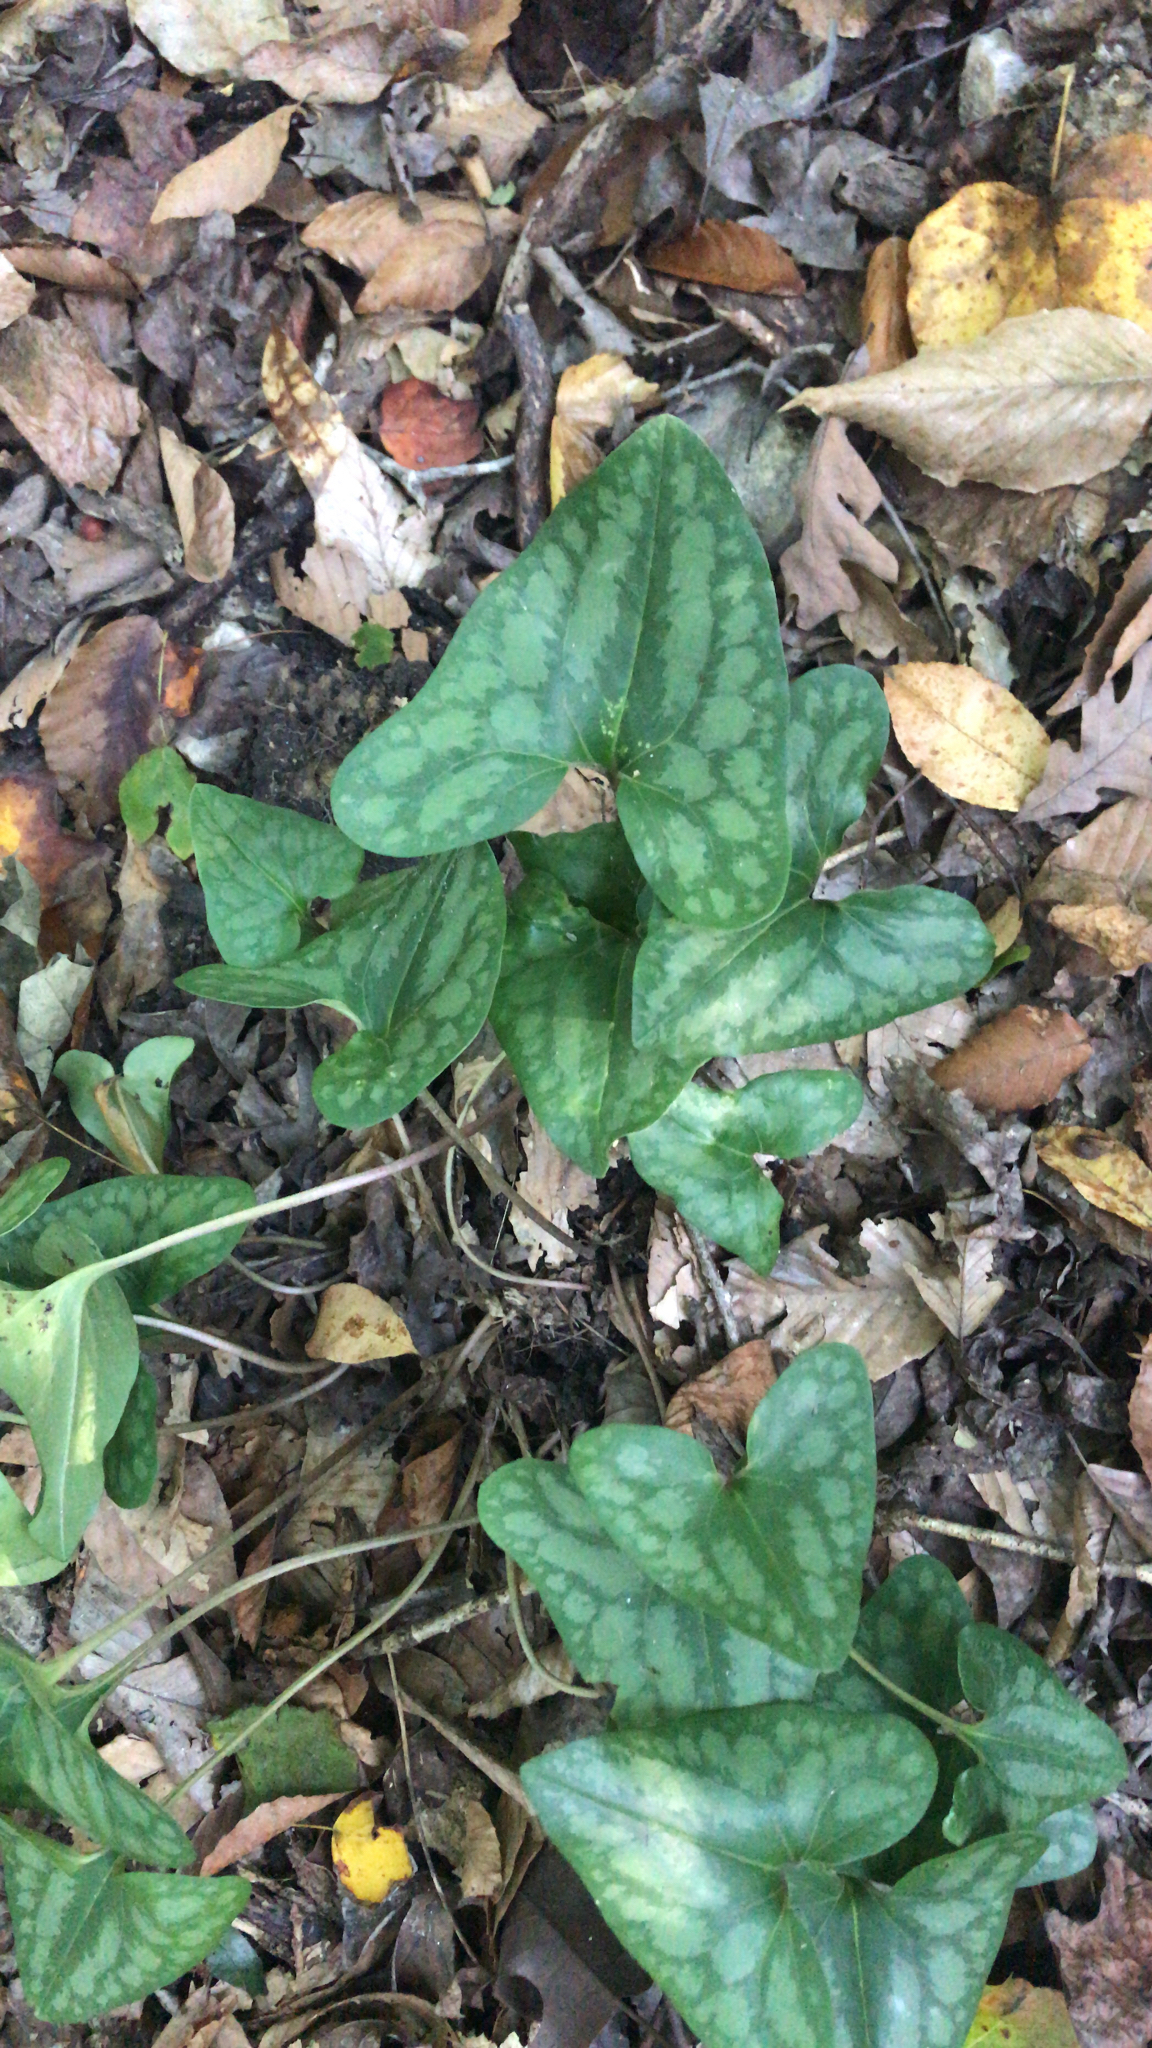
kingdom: Plantae
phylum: Tracheophyta
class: Magnoliopsida
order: Piperales
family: Aristolochiaceae
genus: Hexastylis
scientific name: Hexastylis arifolia
